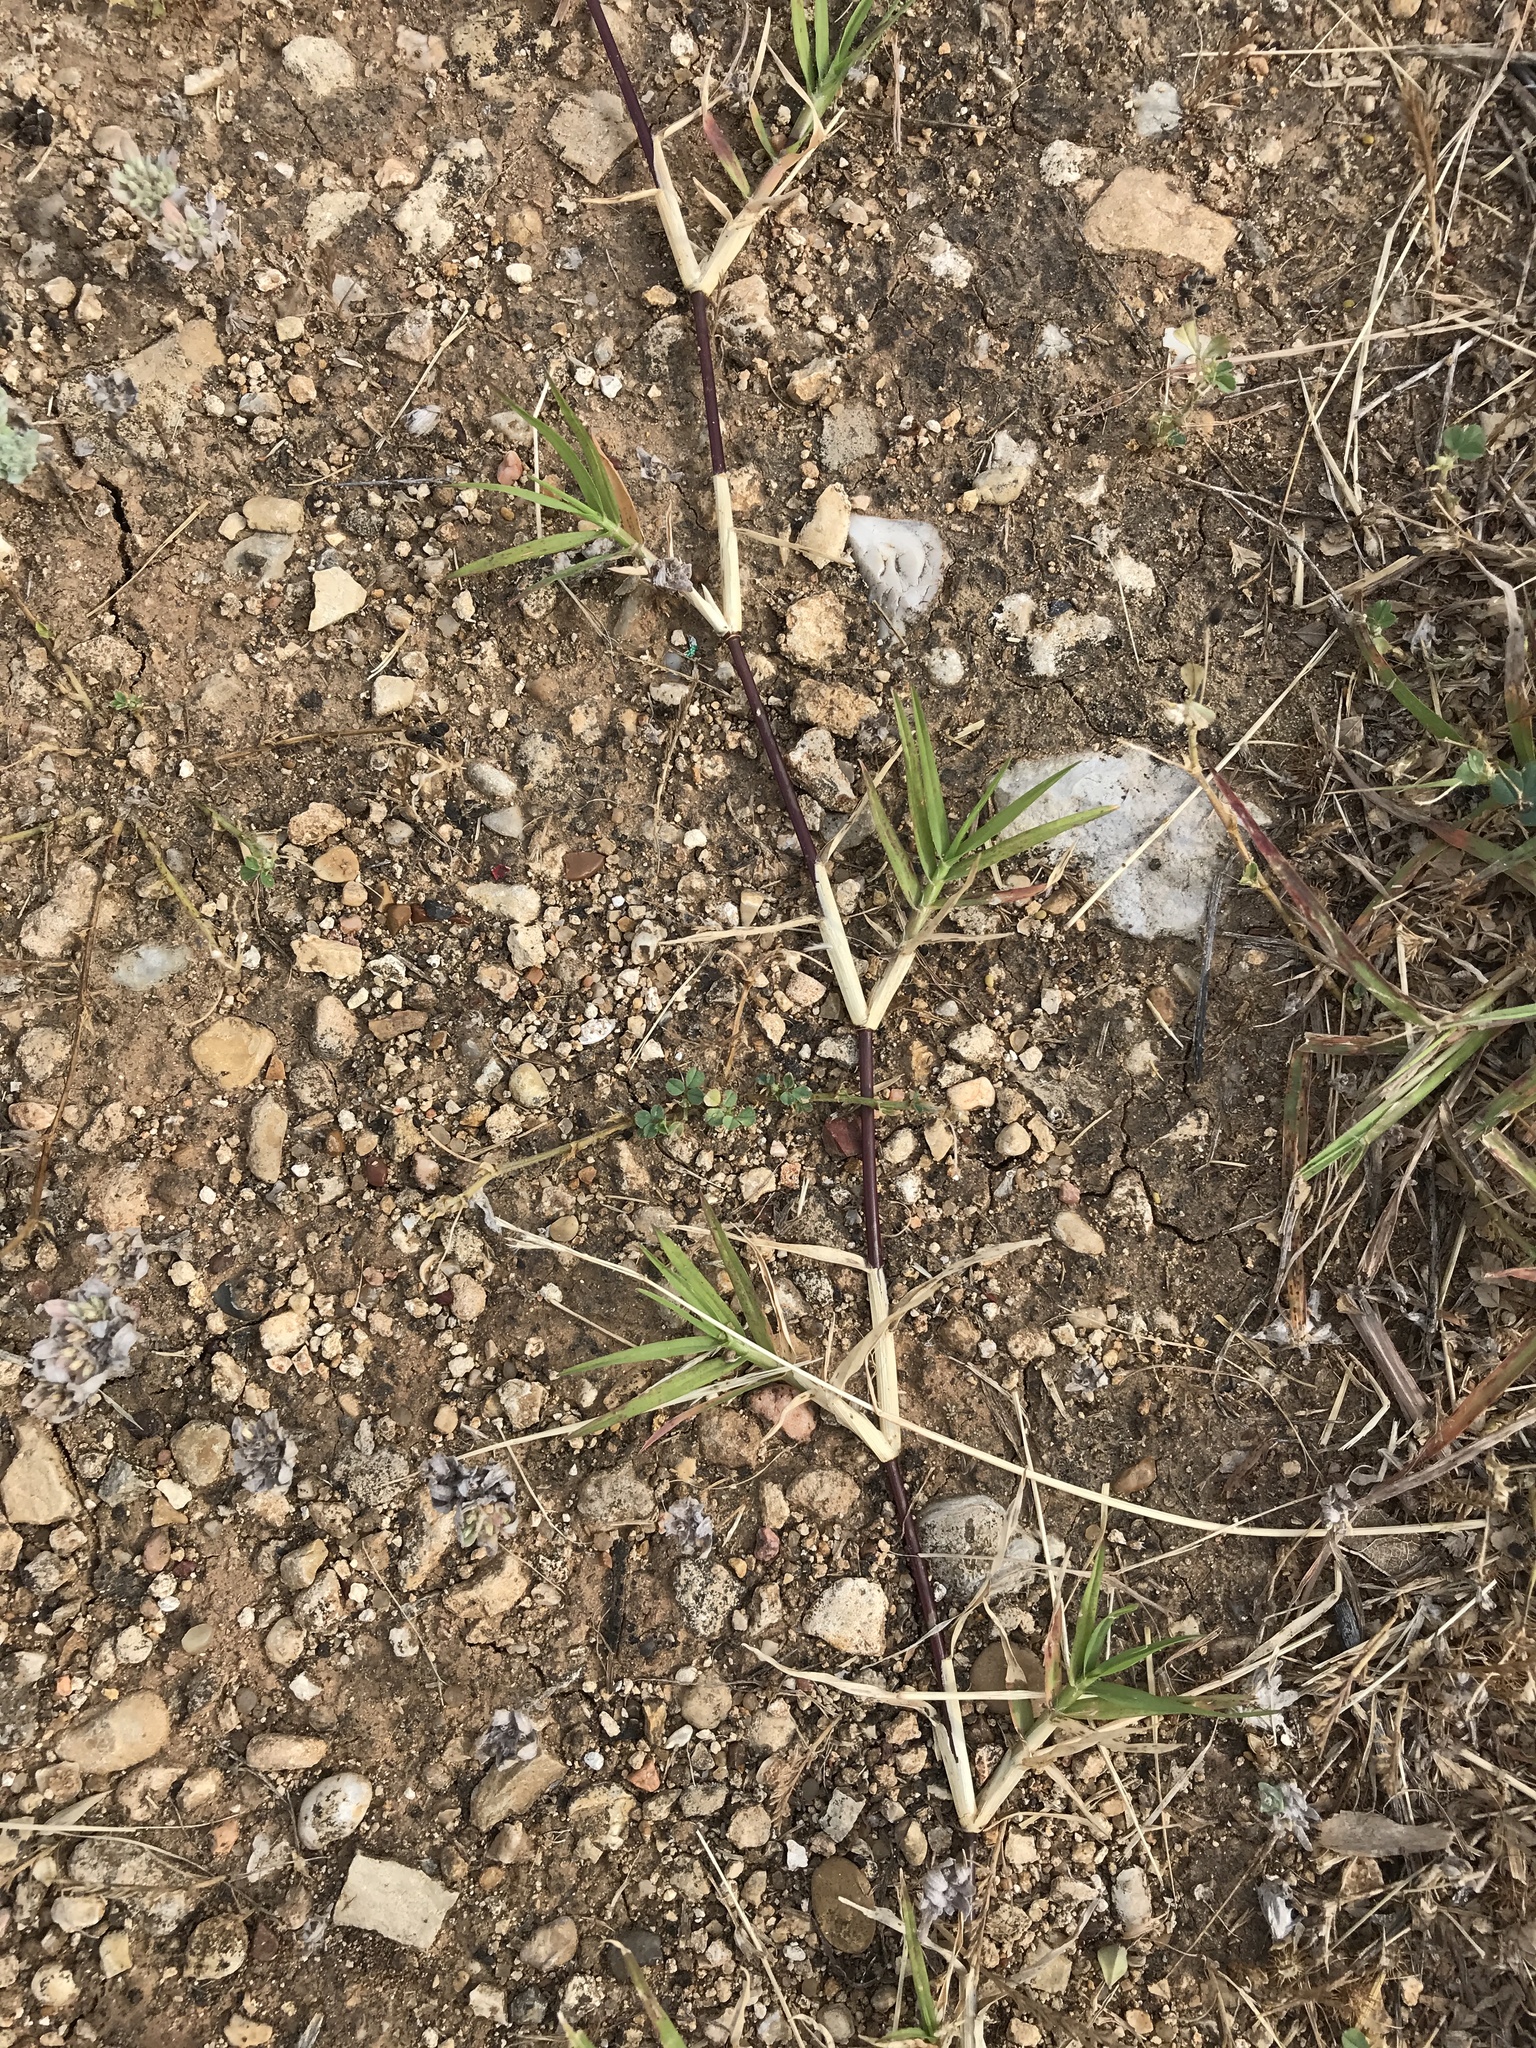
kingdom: Plantae
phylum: Tracheophyta
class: Liliopsida
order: Poales
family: Poaceae
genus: Cynodon
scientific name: Cynodon dactylon
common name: Bermuda grass
